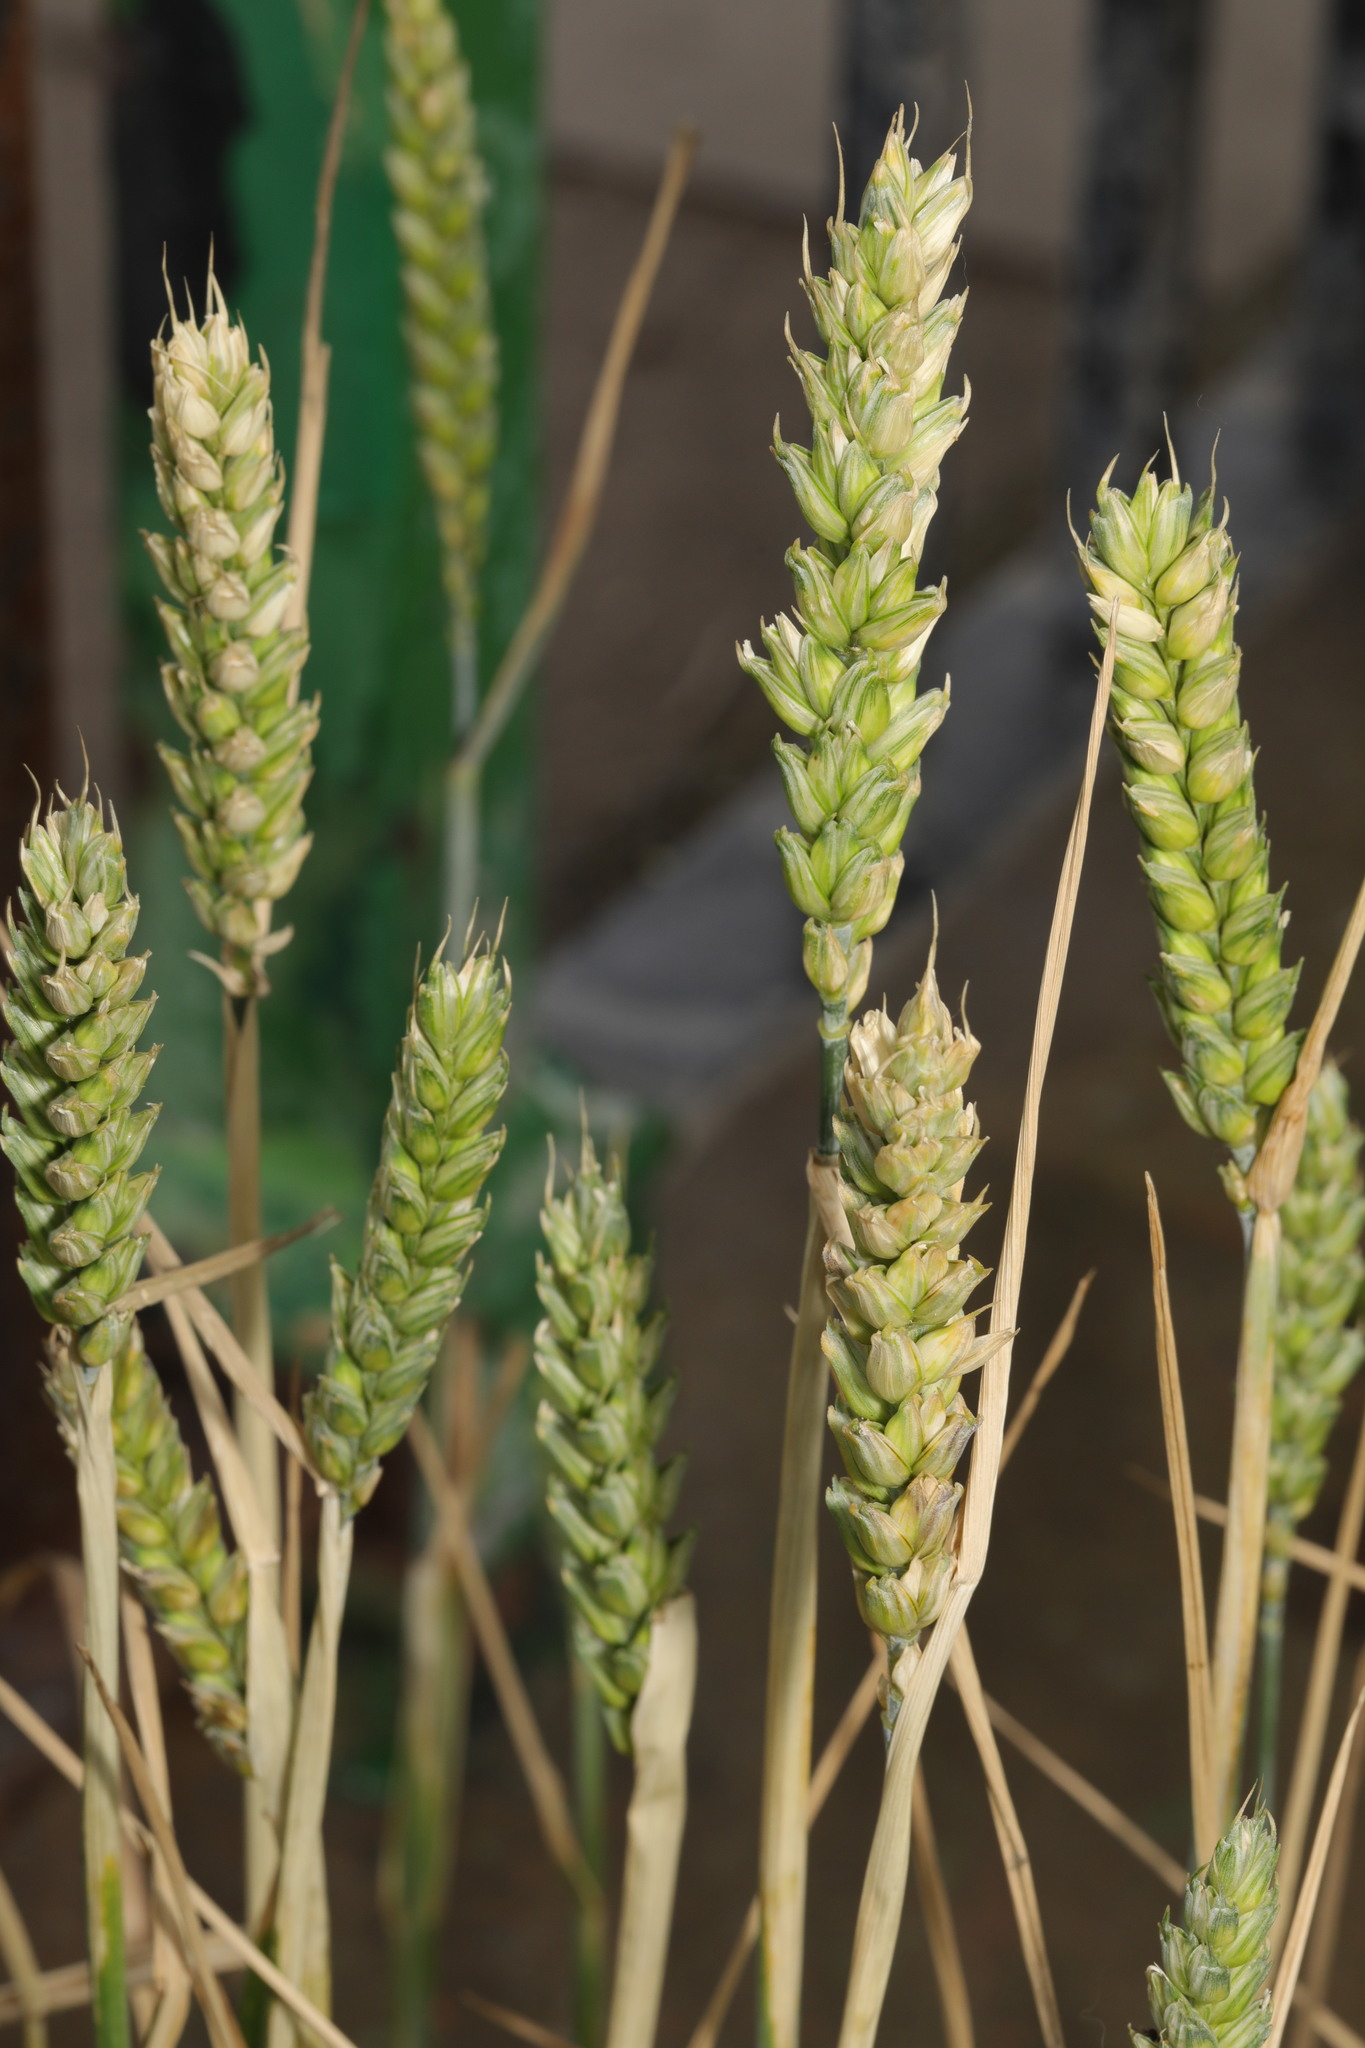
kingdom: Plantae
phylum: Tracheophyta
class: Liliopsida
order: Poales
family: Poaceae
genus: Triticum
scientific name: Triticum aestivum
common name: Common wheat
